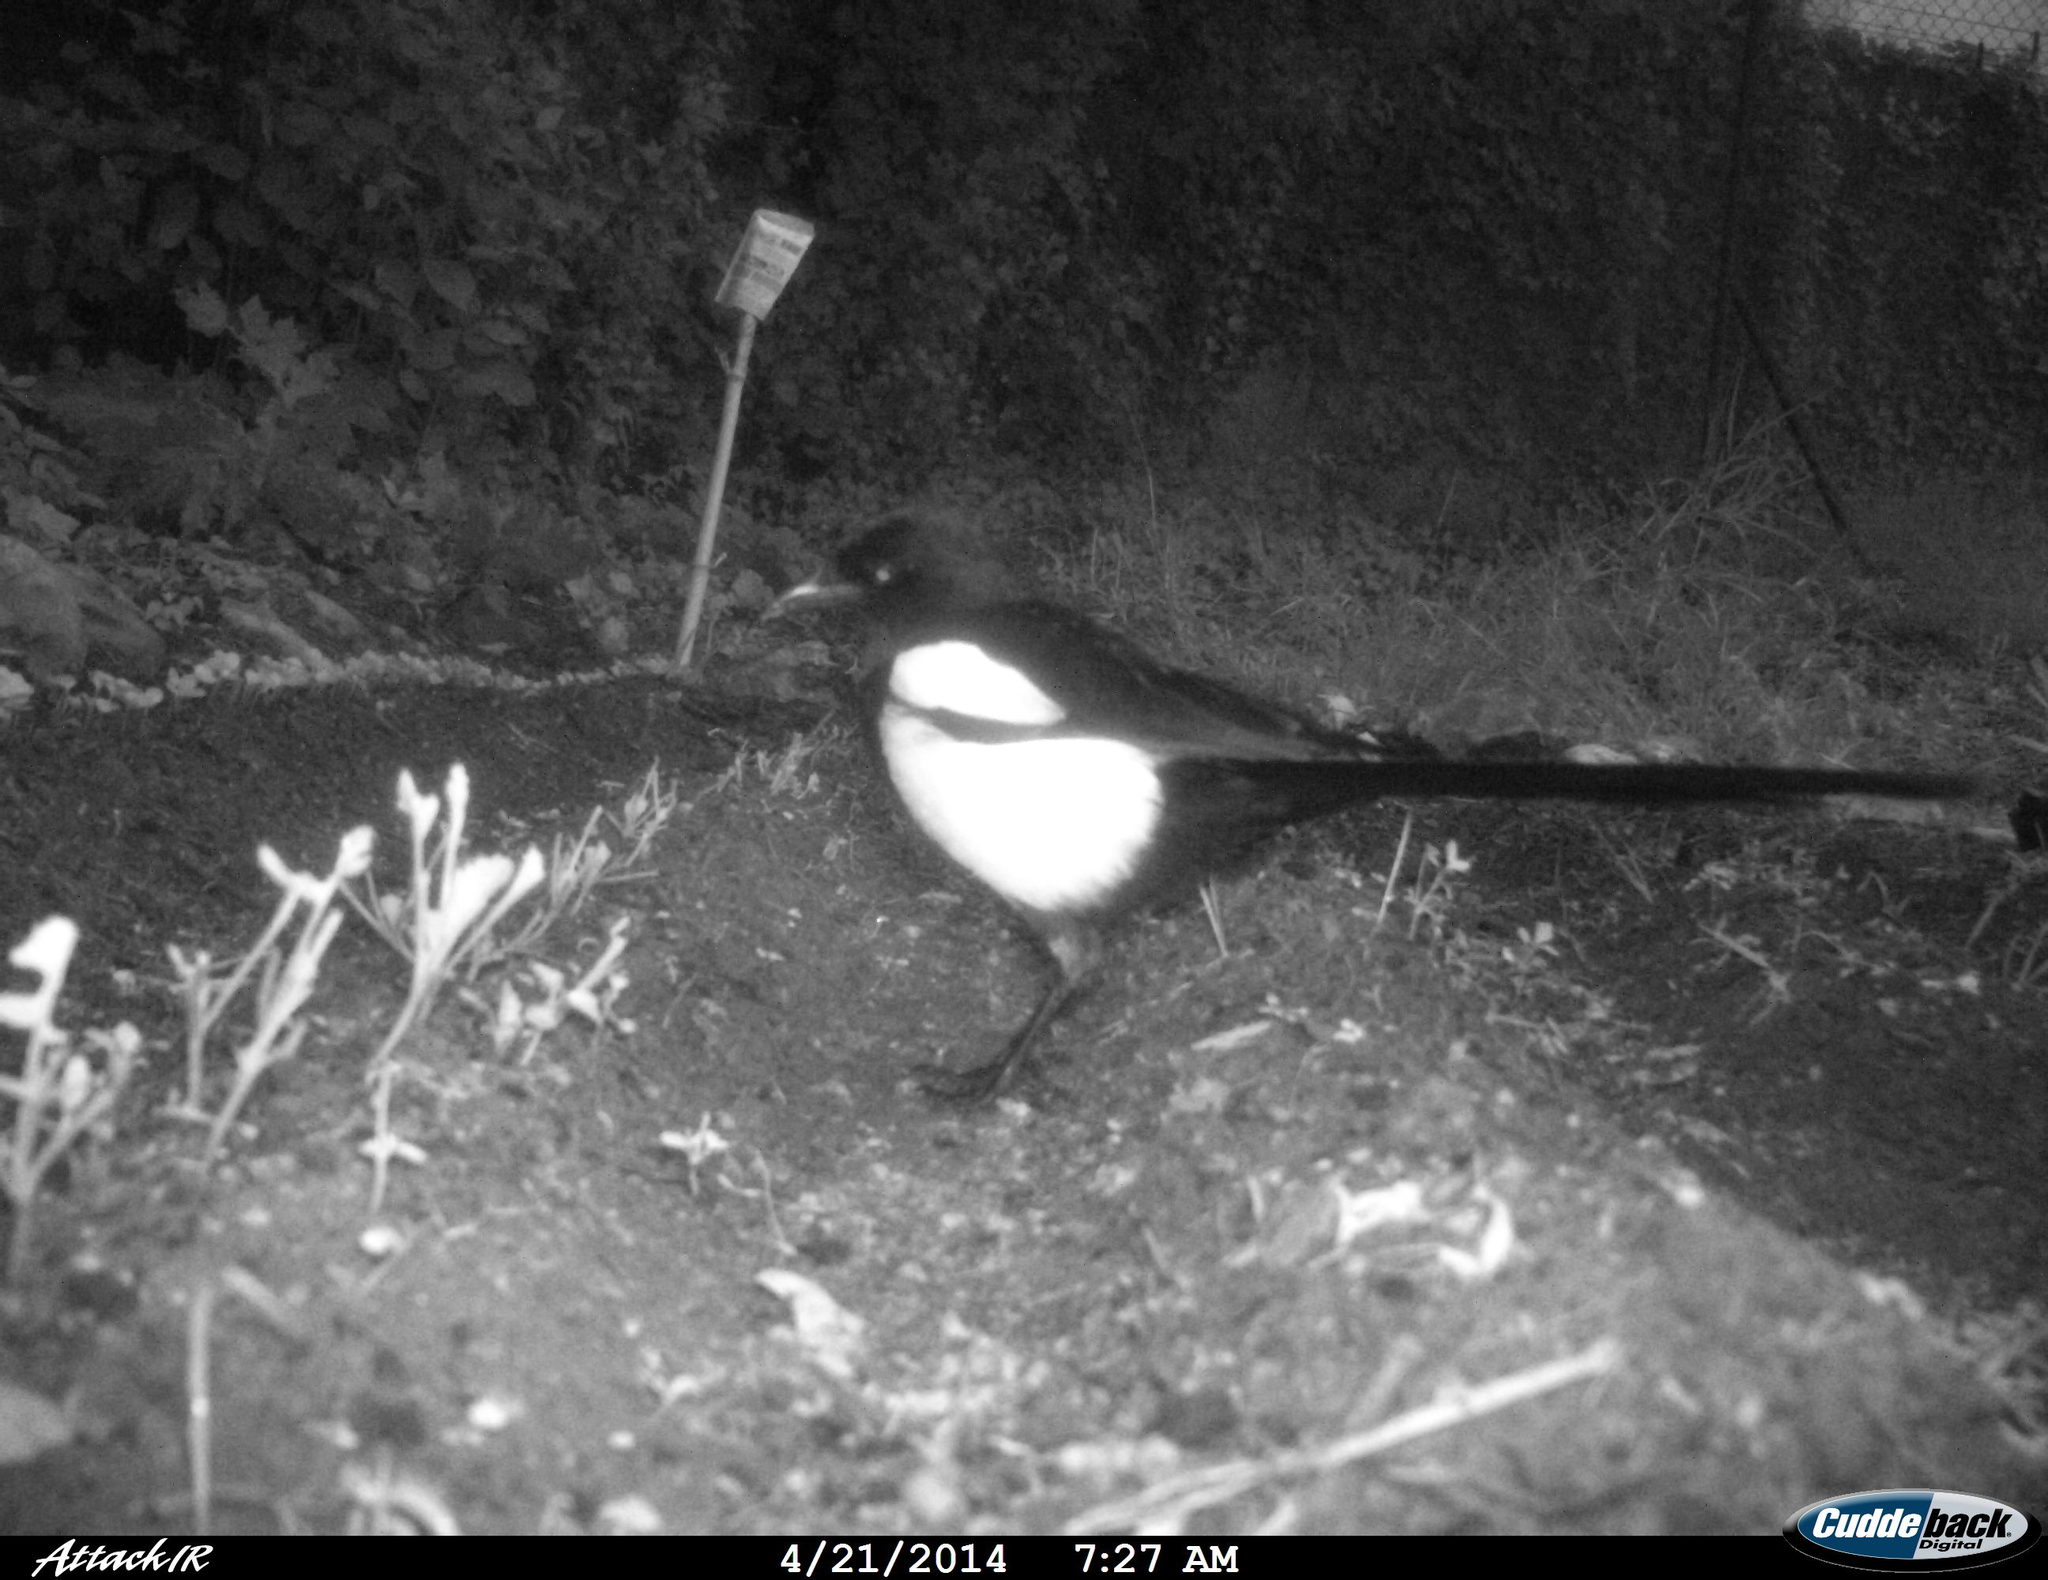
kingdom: Animalia
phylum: Chordata
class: Aves
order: Passeriformes
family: Corvidae
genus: Pica
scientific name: Pica pica
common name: Eurasian magpie
